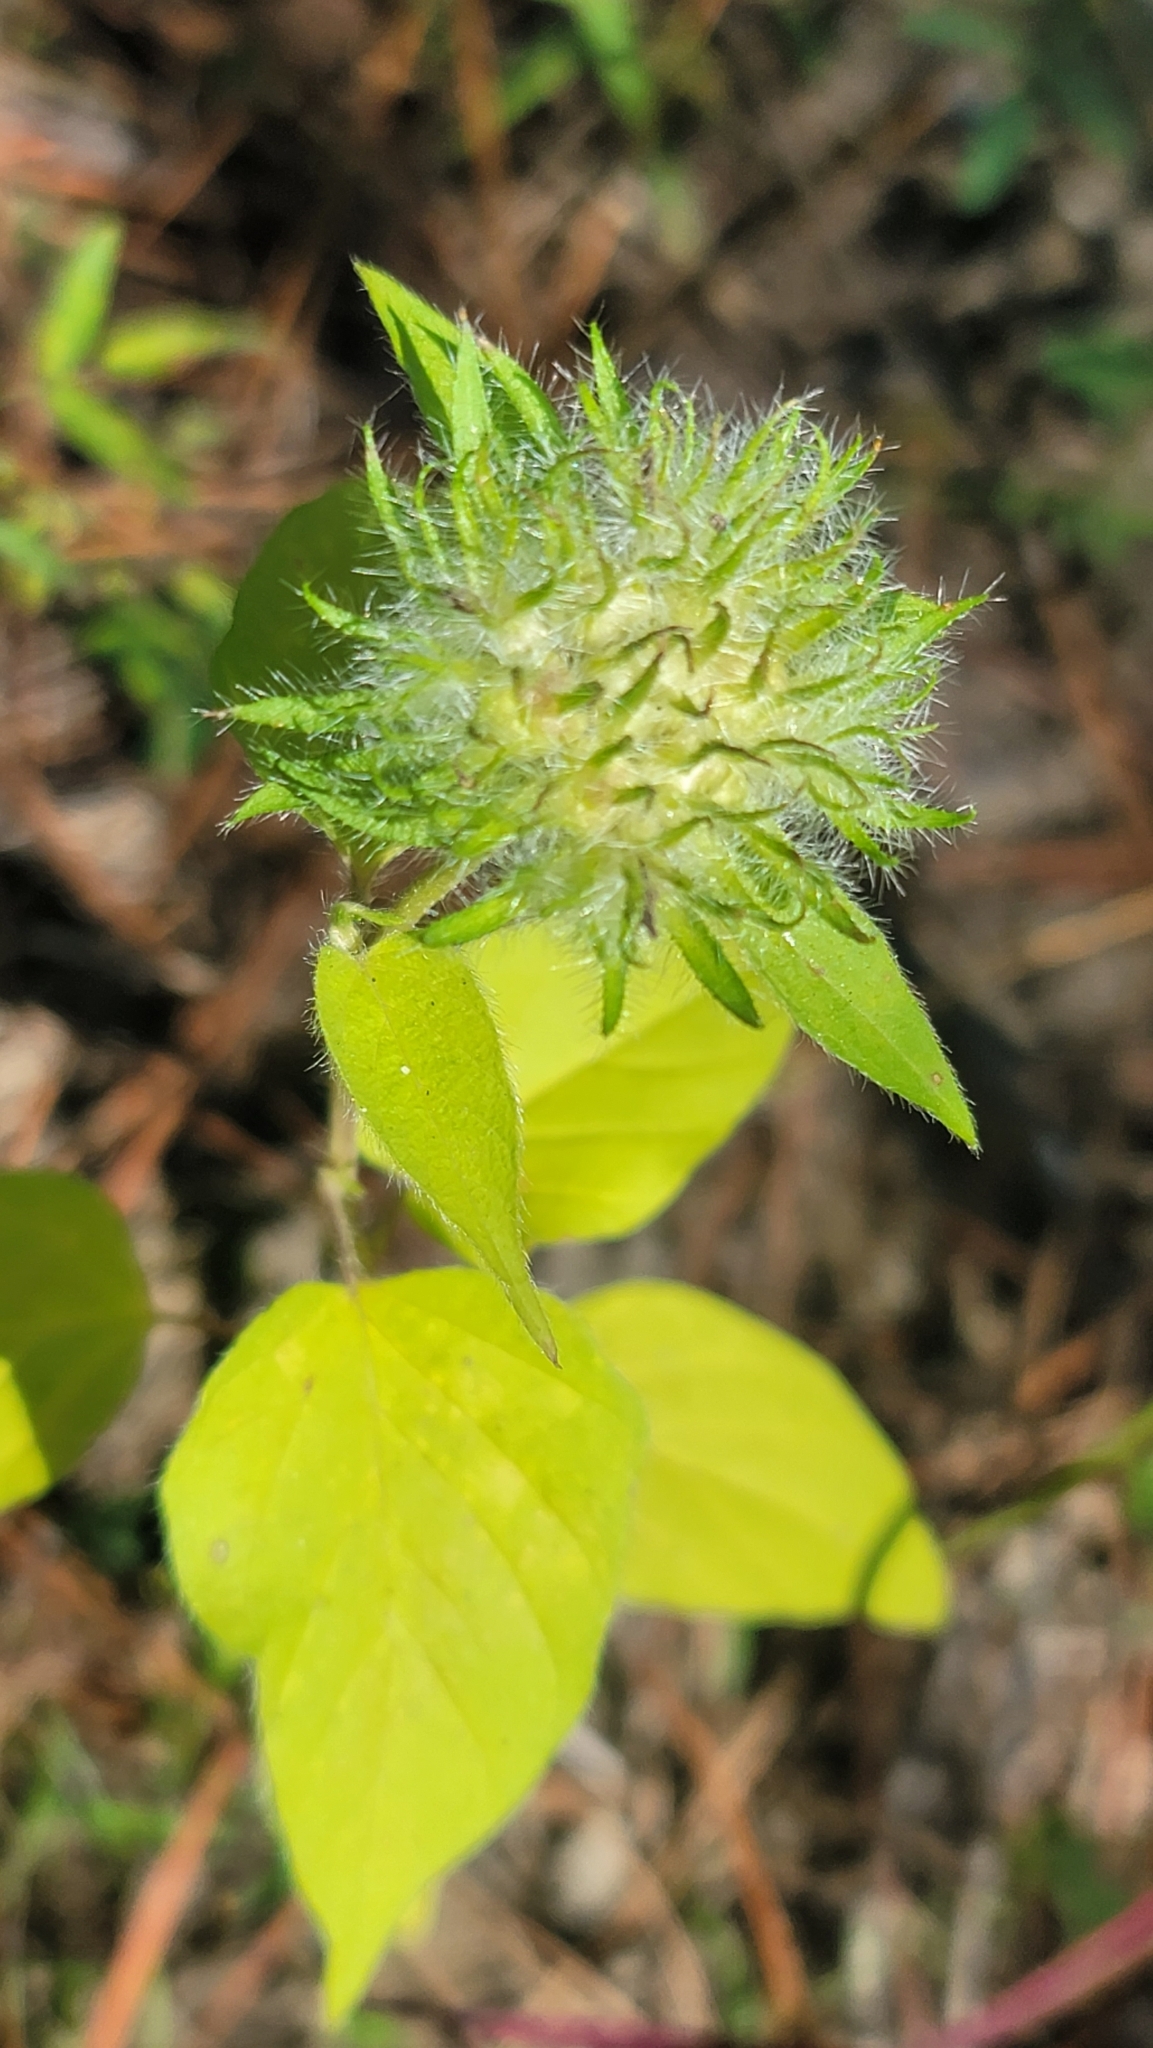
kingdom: Plantae
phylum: Tracheophyta
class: Magnoliopsida
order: Solanales
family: Convolvulaceae
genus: Jacquemontia
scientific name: Jacquemontia tamnifolia
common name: Hairy clustervine
